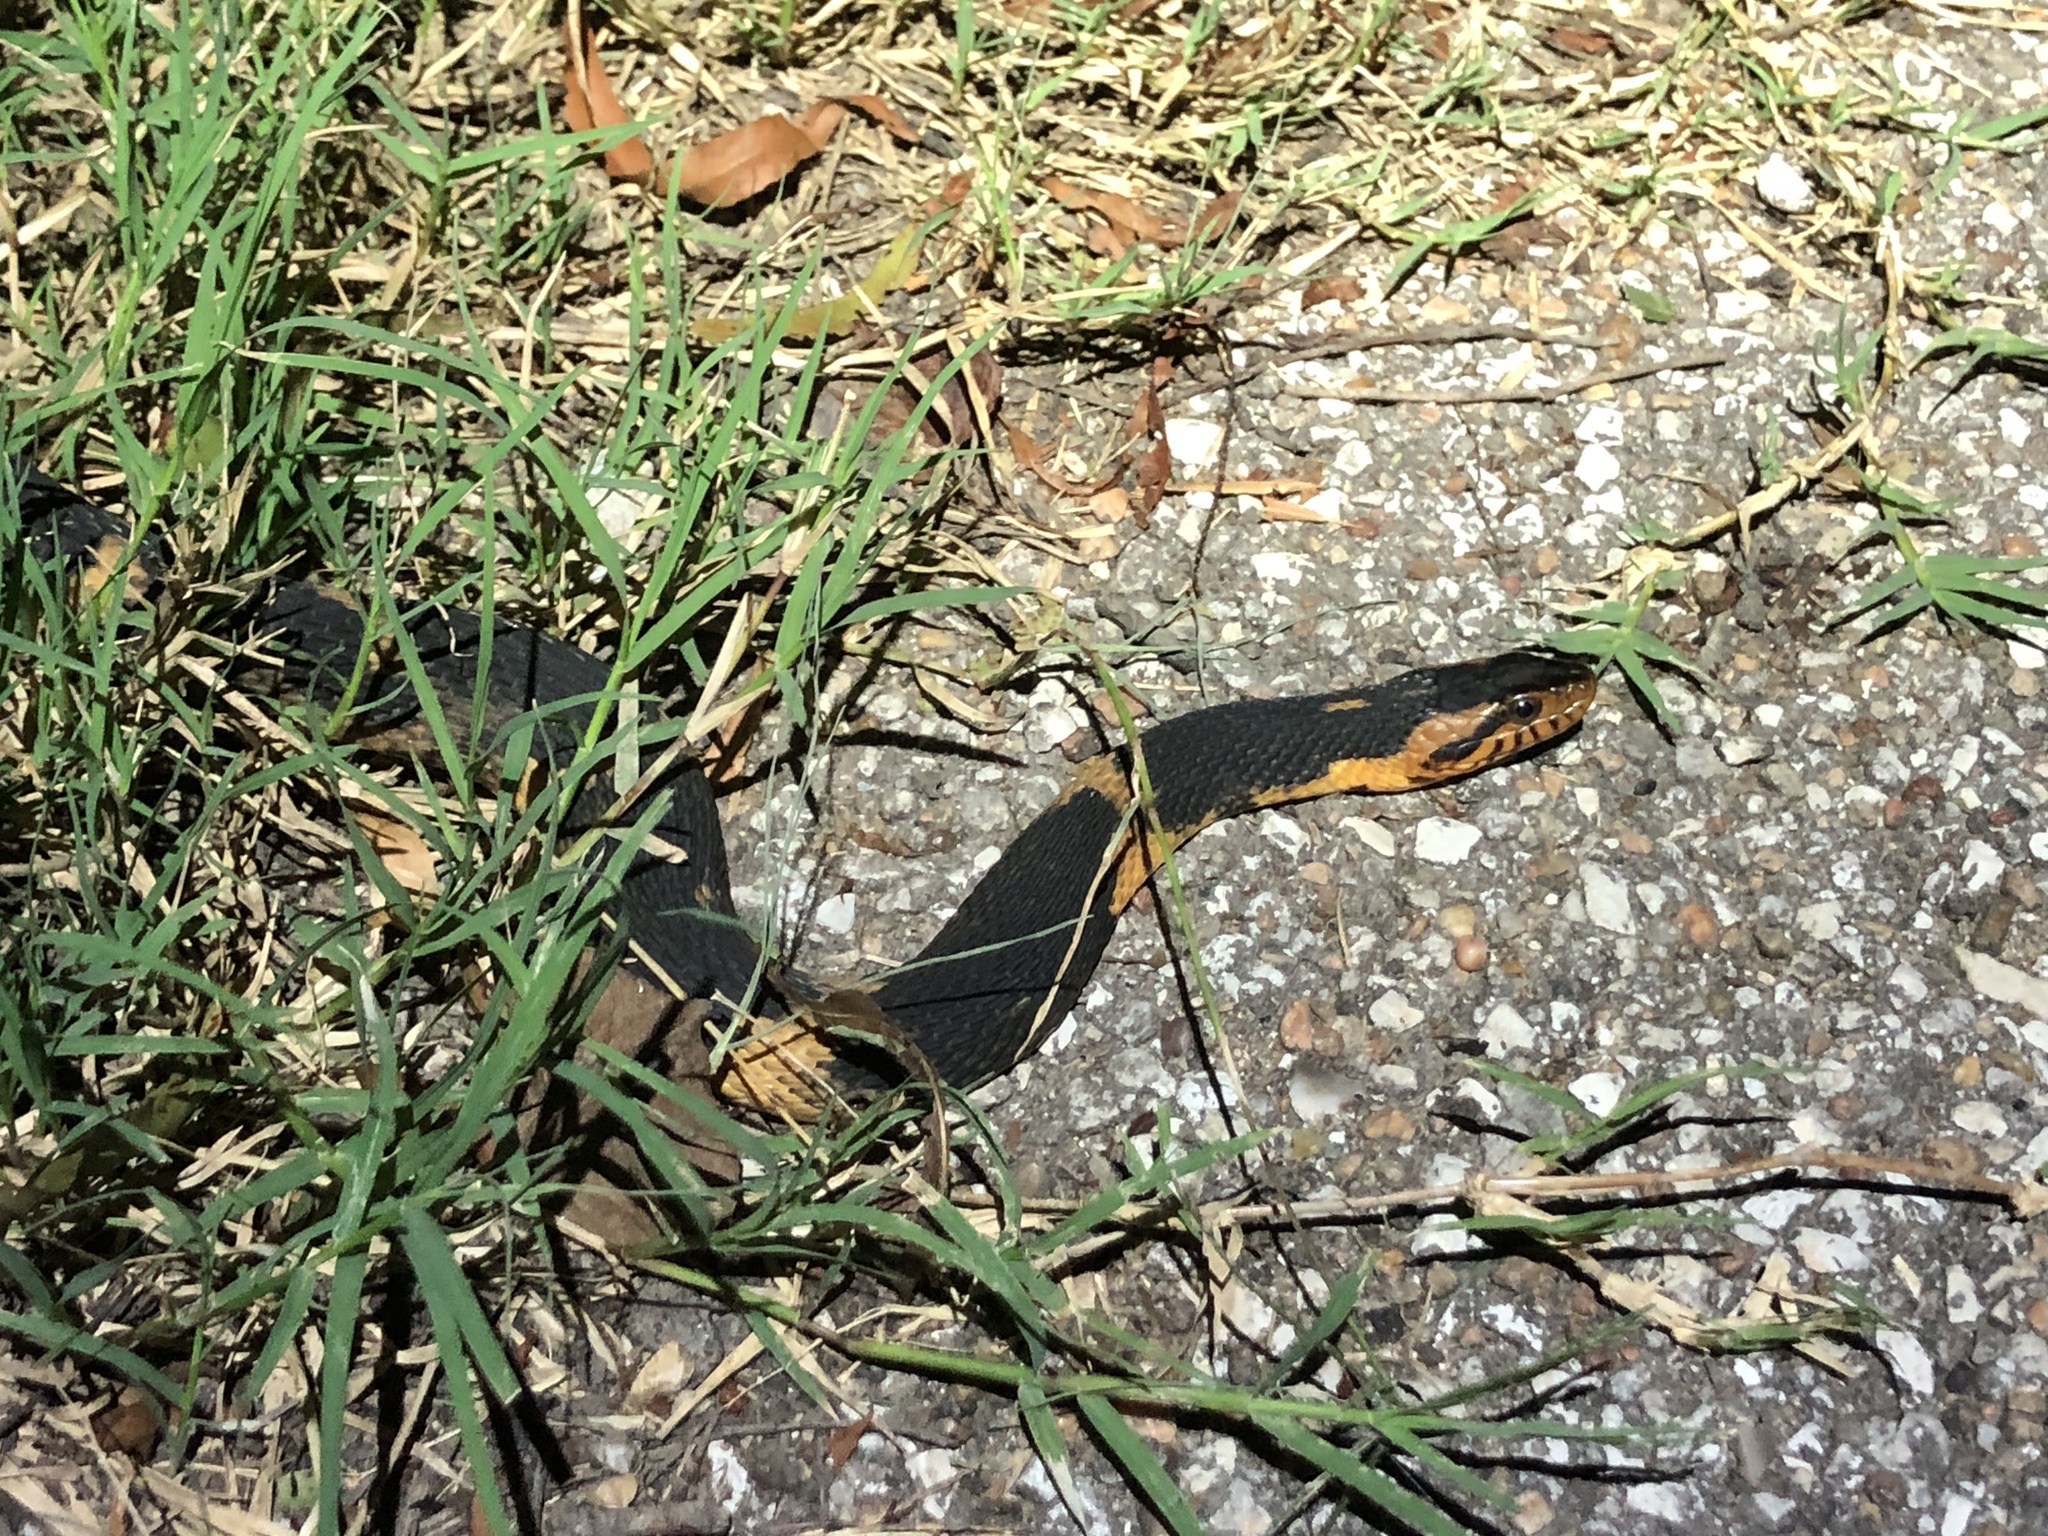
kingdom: Animalia
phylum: Chordata
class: Squamata
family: Colubridae
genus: Nerodia
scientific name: Nerodia fasciata
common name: Southern water snake
